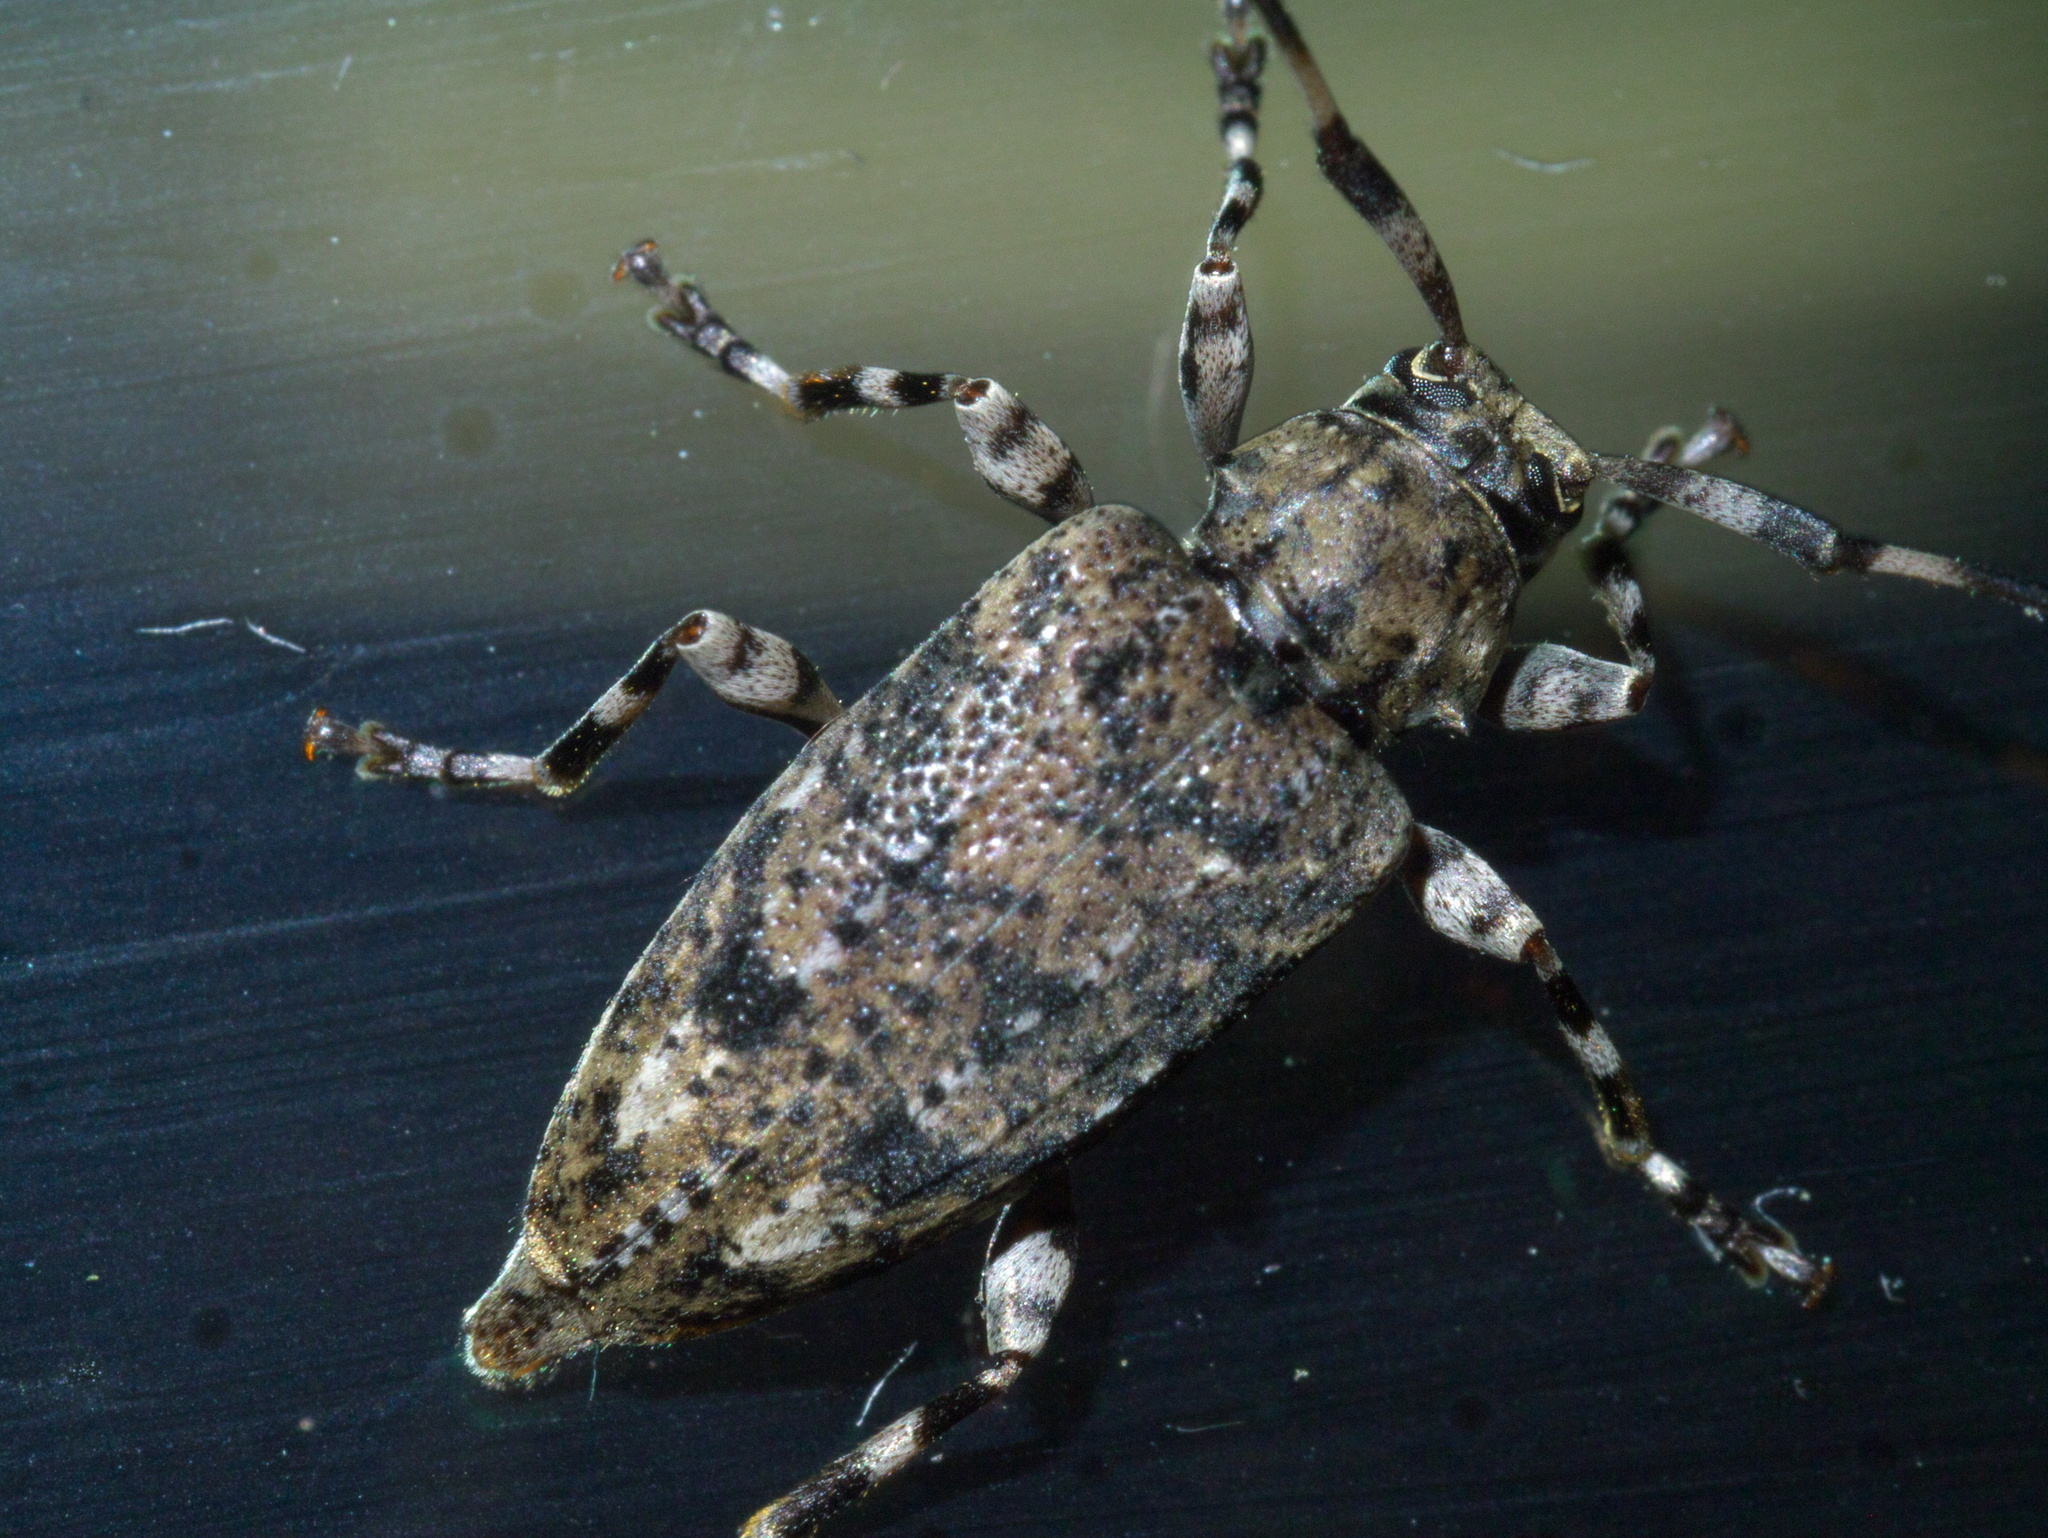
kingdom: Animalia
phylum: Arthropoda
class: Insecta
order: Coleoptera
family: Cerambycidae
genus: Astyleiopus
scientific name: Astyleiopus variegatus
